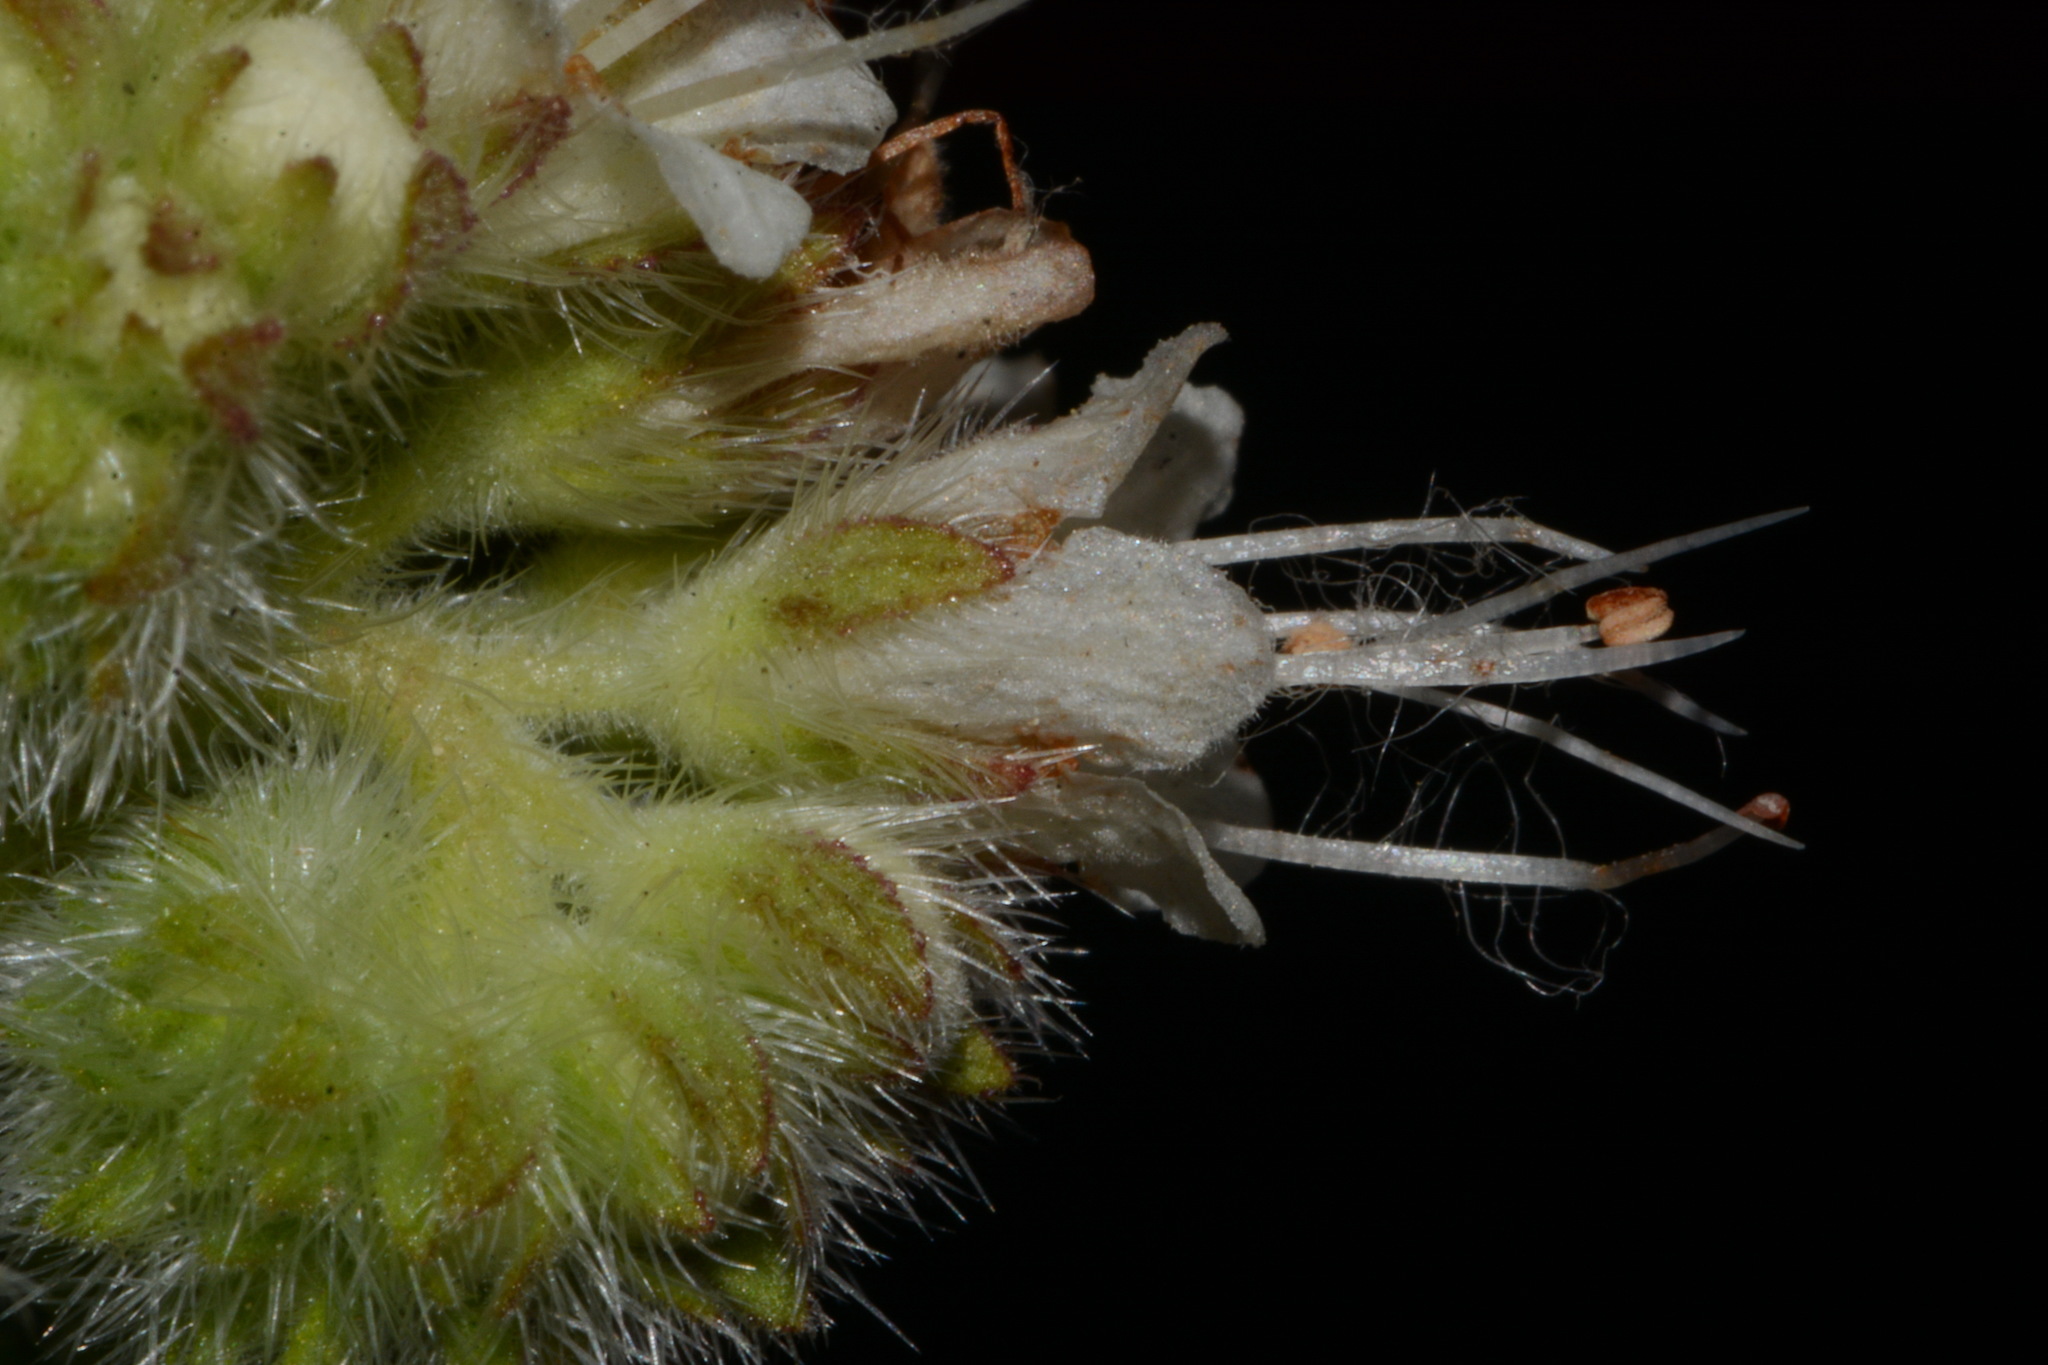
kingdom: Plantae
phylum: Tracheophyta
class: Magnoliopsida
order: Boraginales
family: Hydrophyllaceae
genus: Phacelia
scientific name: Phacelia heterophylla
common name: Variable-leaved phacelia
